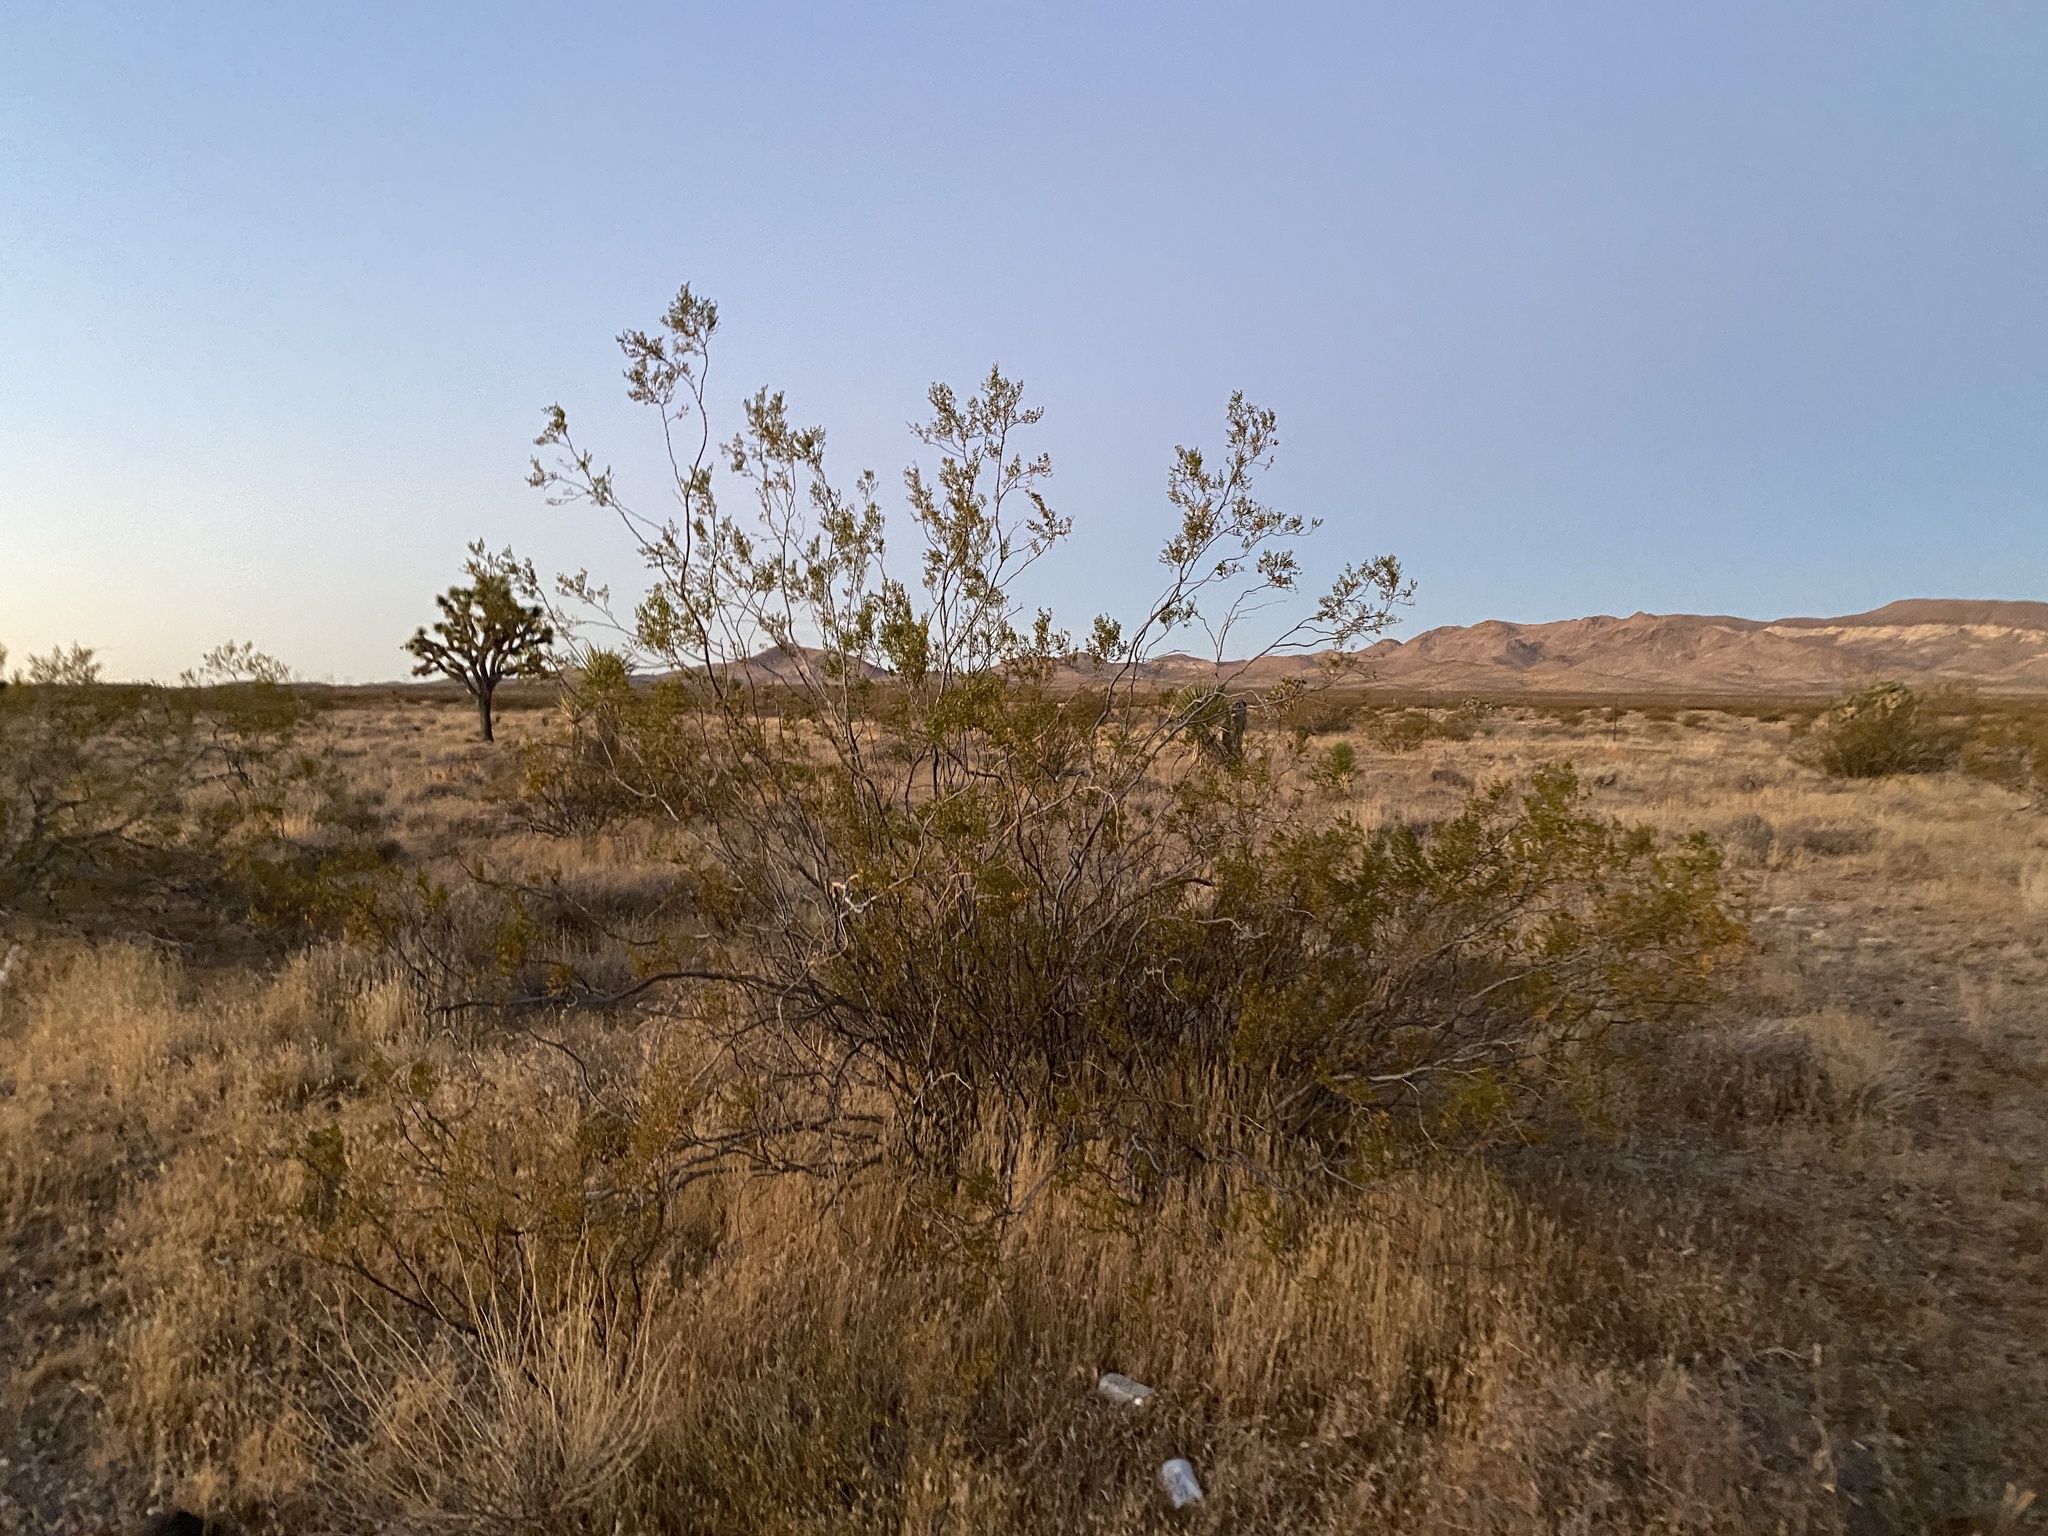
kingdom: Plantae
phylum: Tracheophyta
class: Magnoliopsida
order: Zygophyllales
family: Zygophyllaceae
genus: Larrea
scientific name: Larrea tridentata
